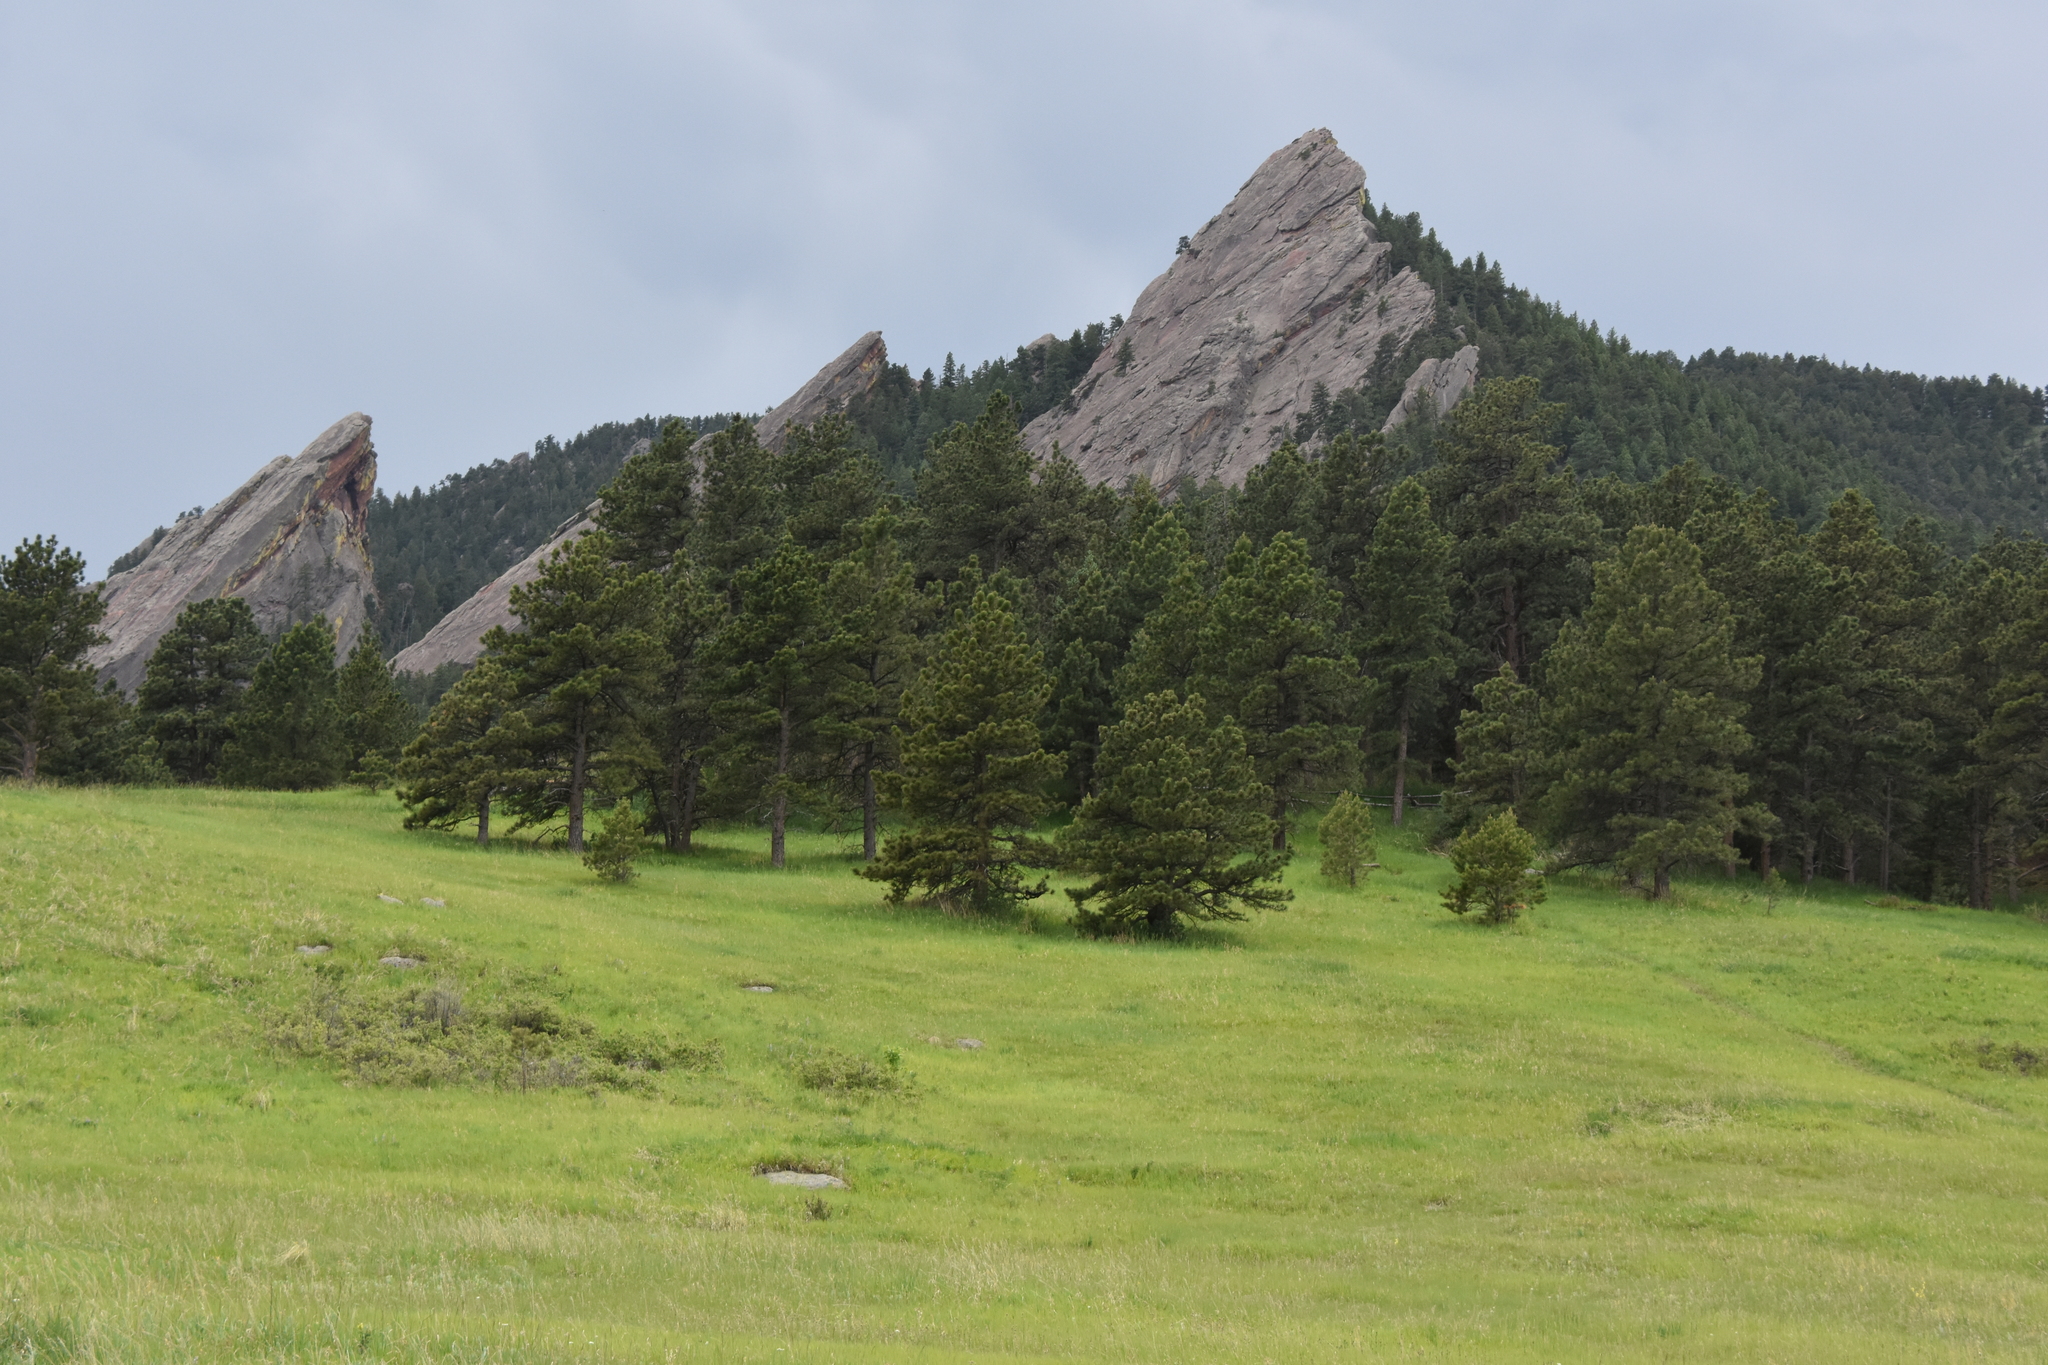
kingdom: Plantae
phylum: Tracheophyta
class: Pinopsida
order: Pinales
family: Pinaceae
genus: Pinus
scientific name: Pinus ponderosa
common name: Western yellow-pine
